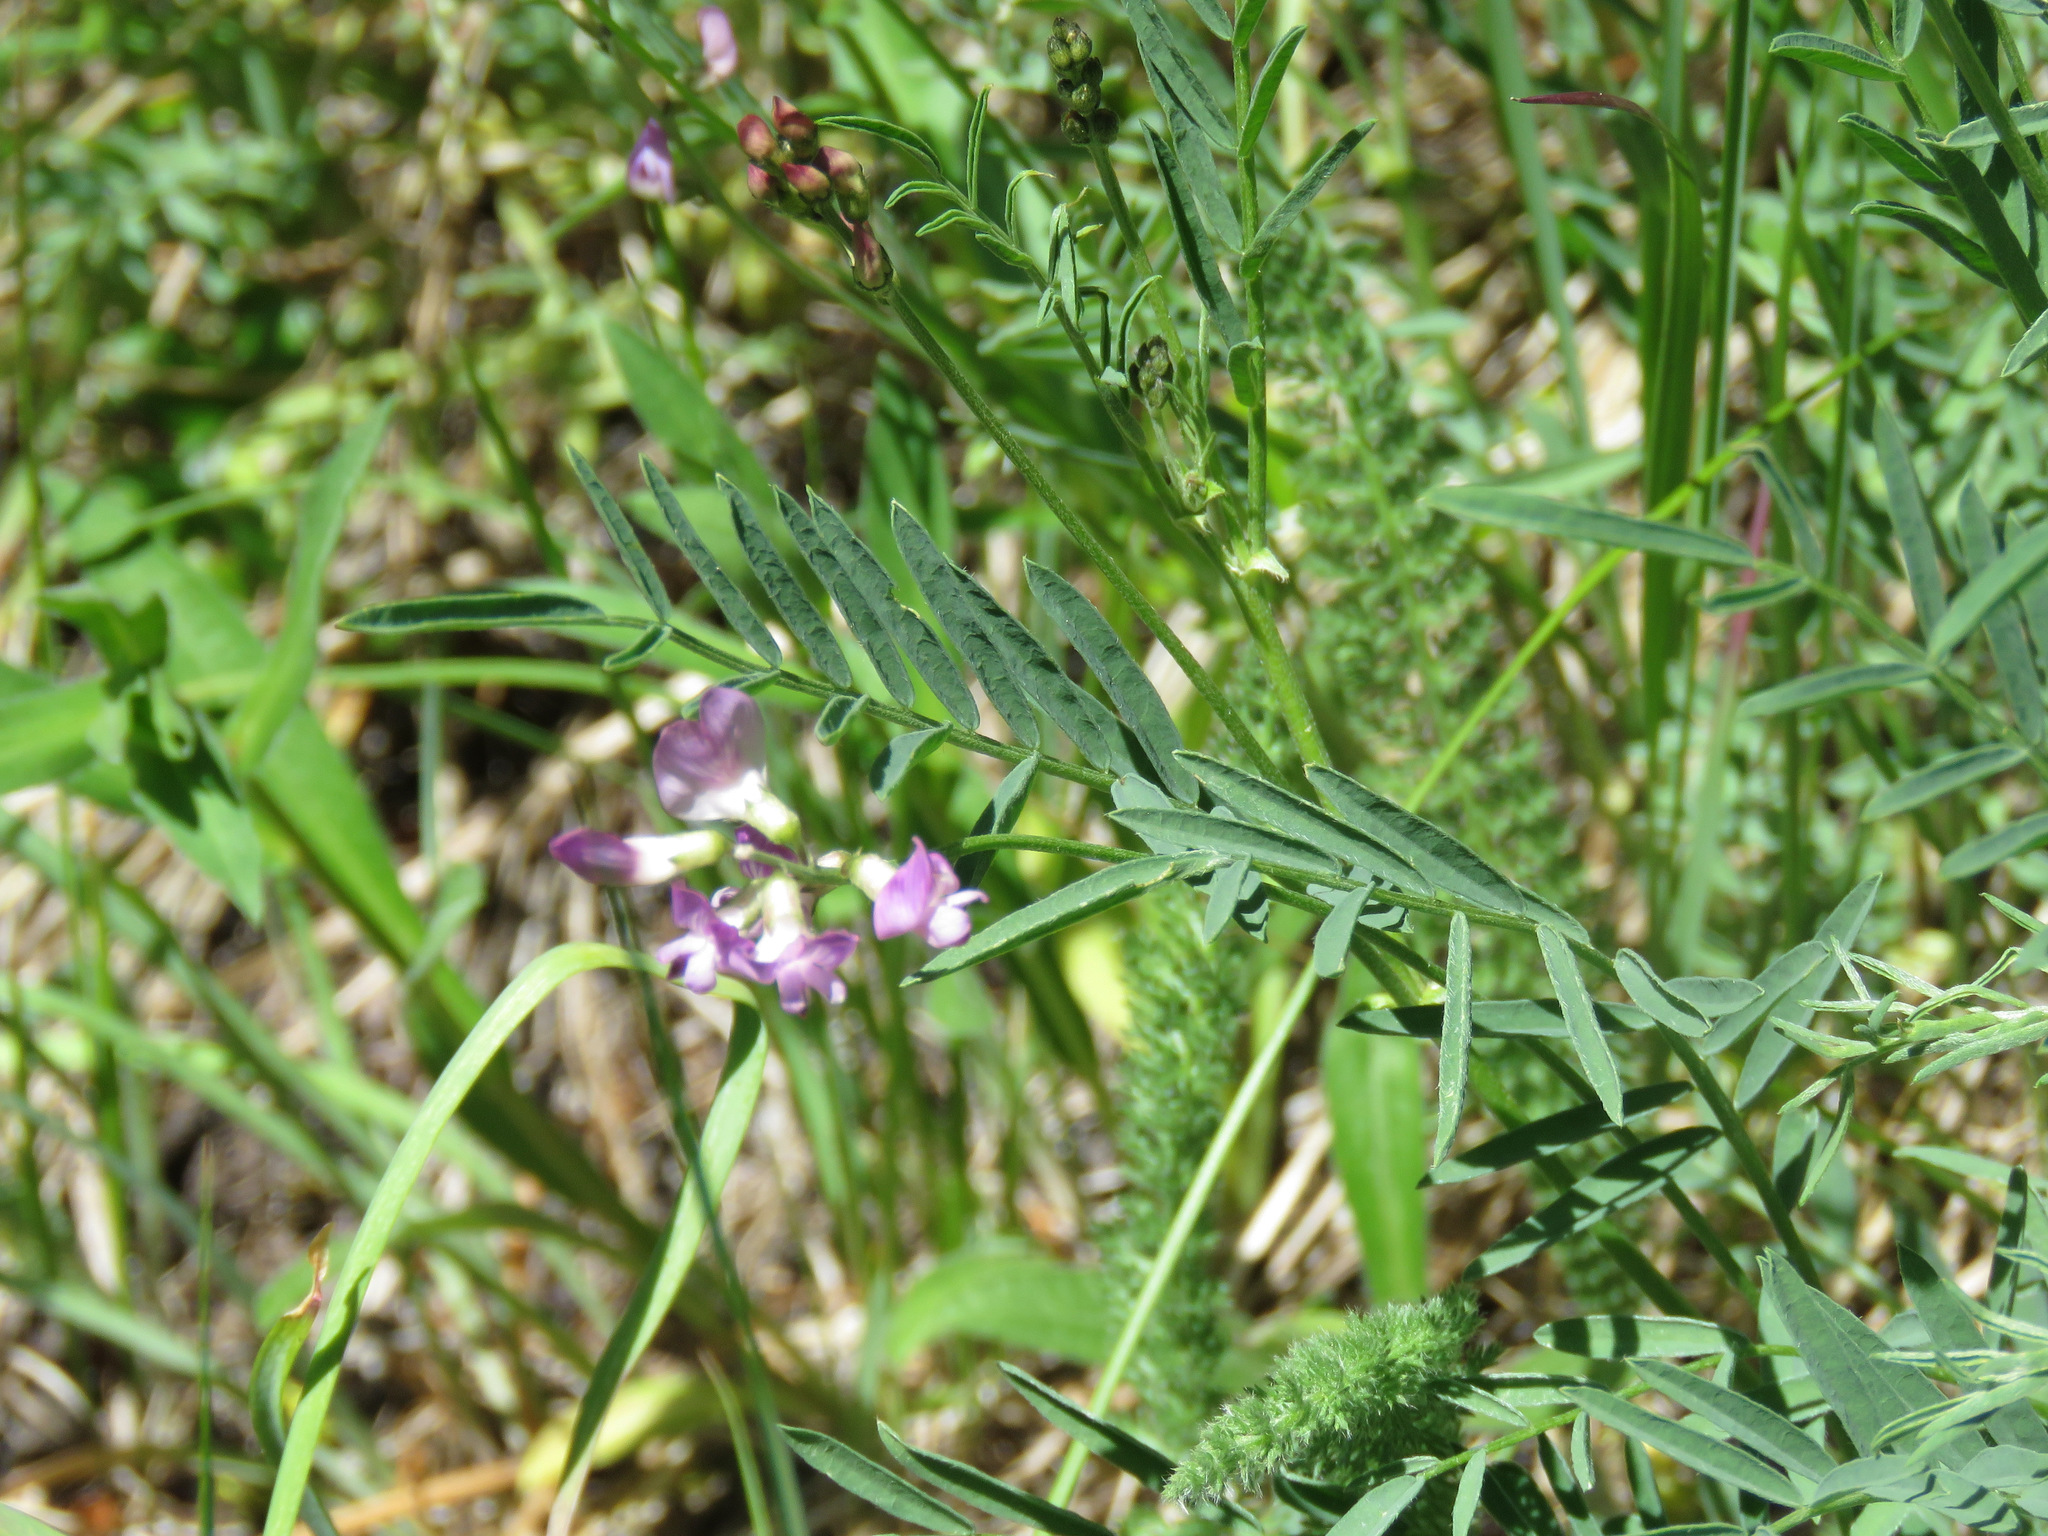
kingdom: Plantae
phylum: Tracheophyta
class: Magnoliopsida
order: Fabales
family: Fabaceae
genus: Astragalus
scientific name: Astragalus miser
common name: Timber milkvetch
